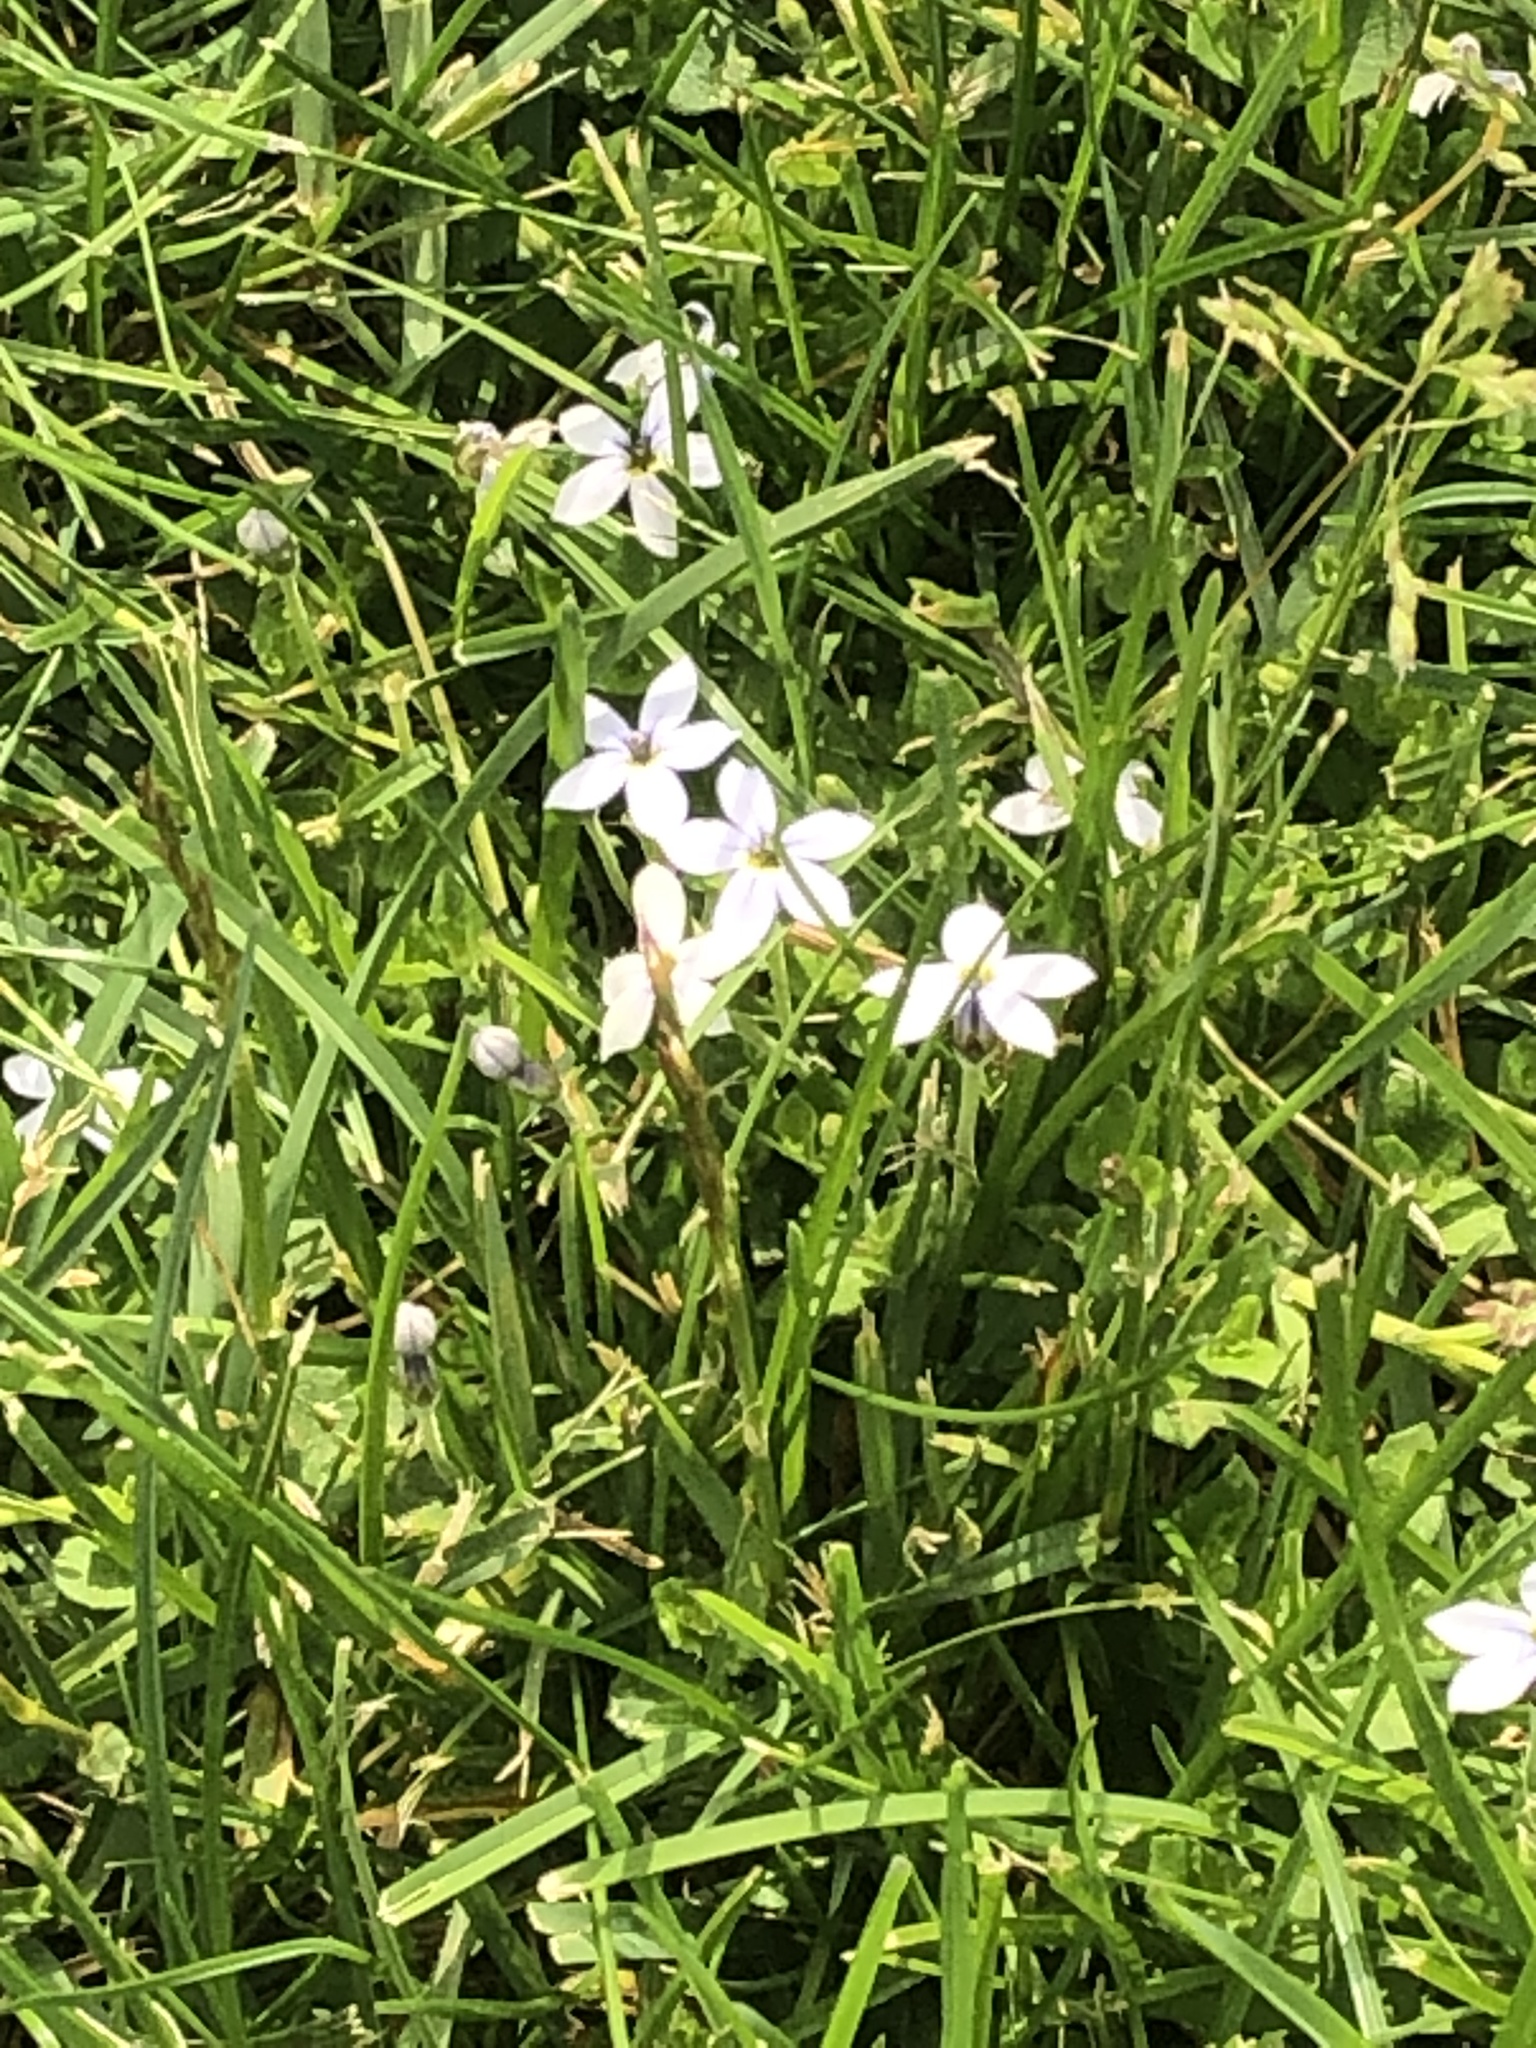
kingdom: Plantae
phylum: Tracheophyta
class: Liliopsida
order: Asparagales
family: Amaryllidaceae
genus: Ipheion
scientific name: Ipheion uniflorum
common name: Spring starflower
